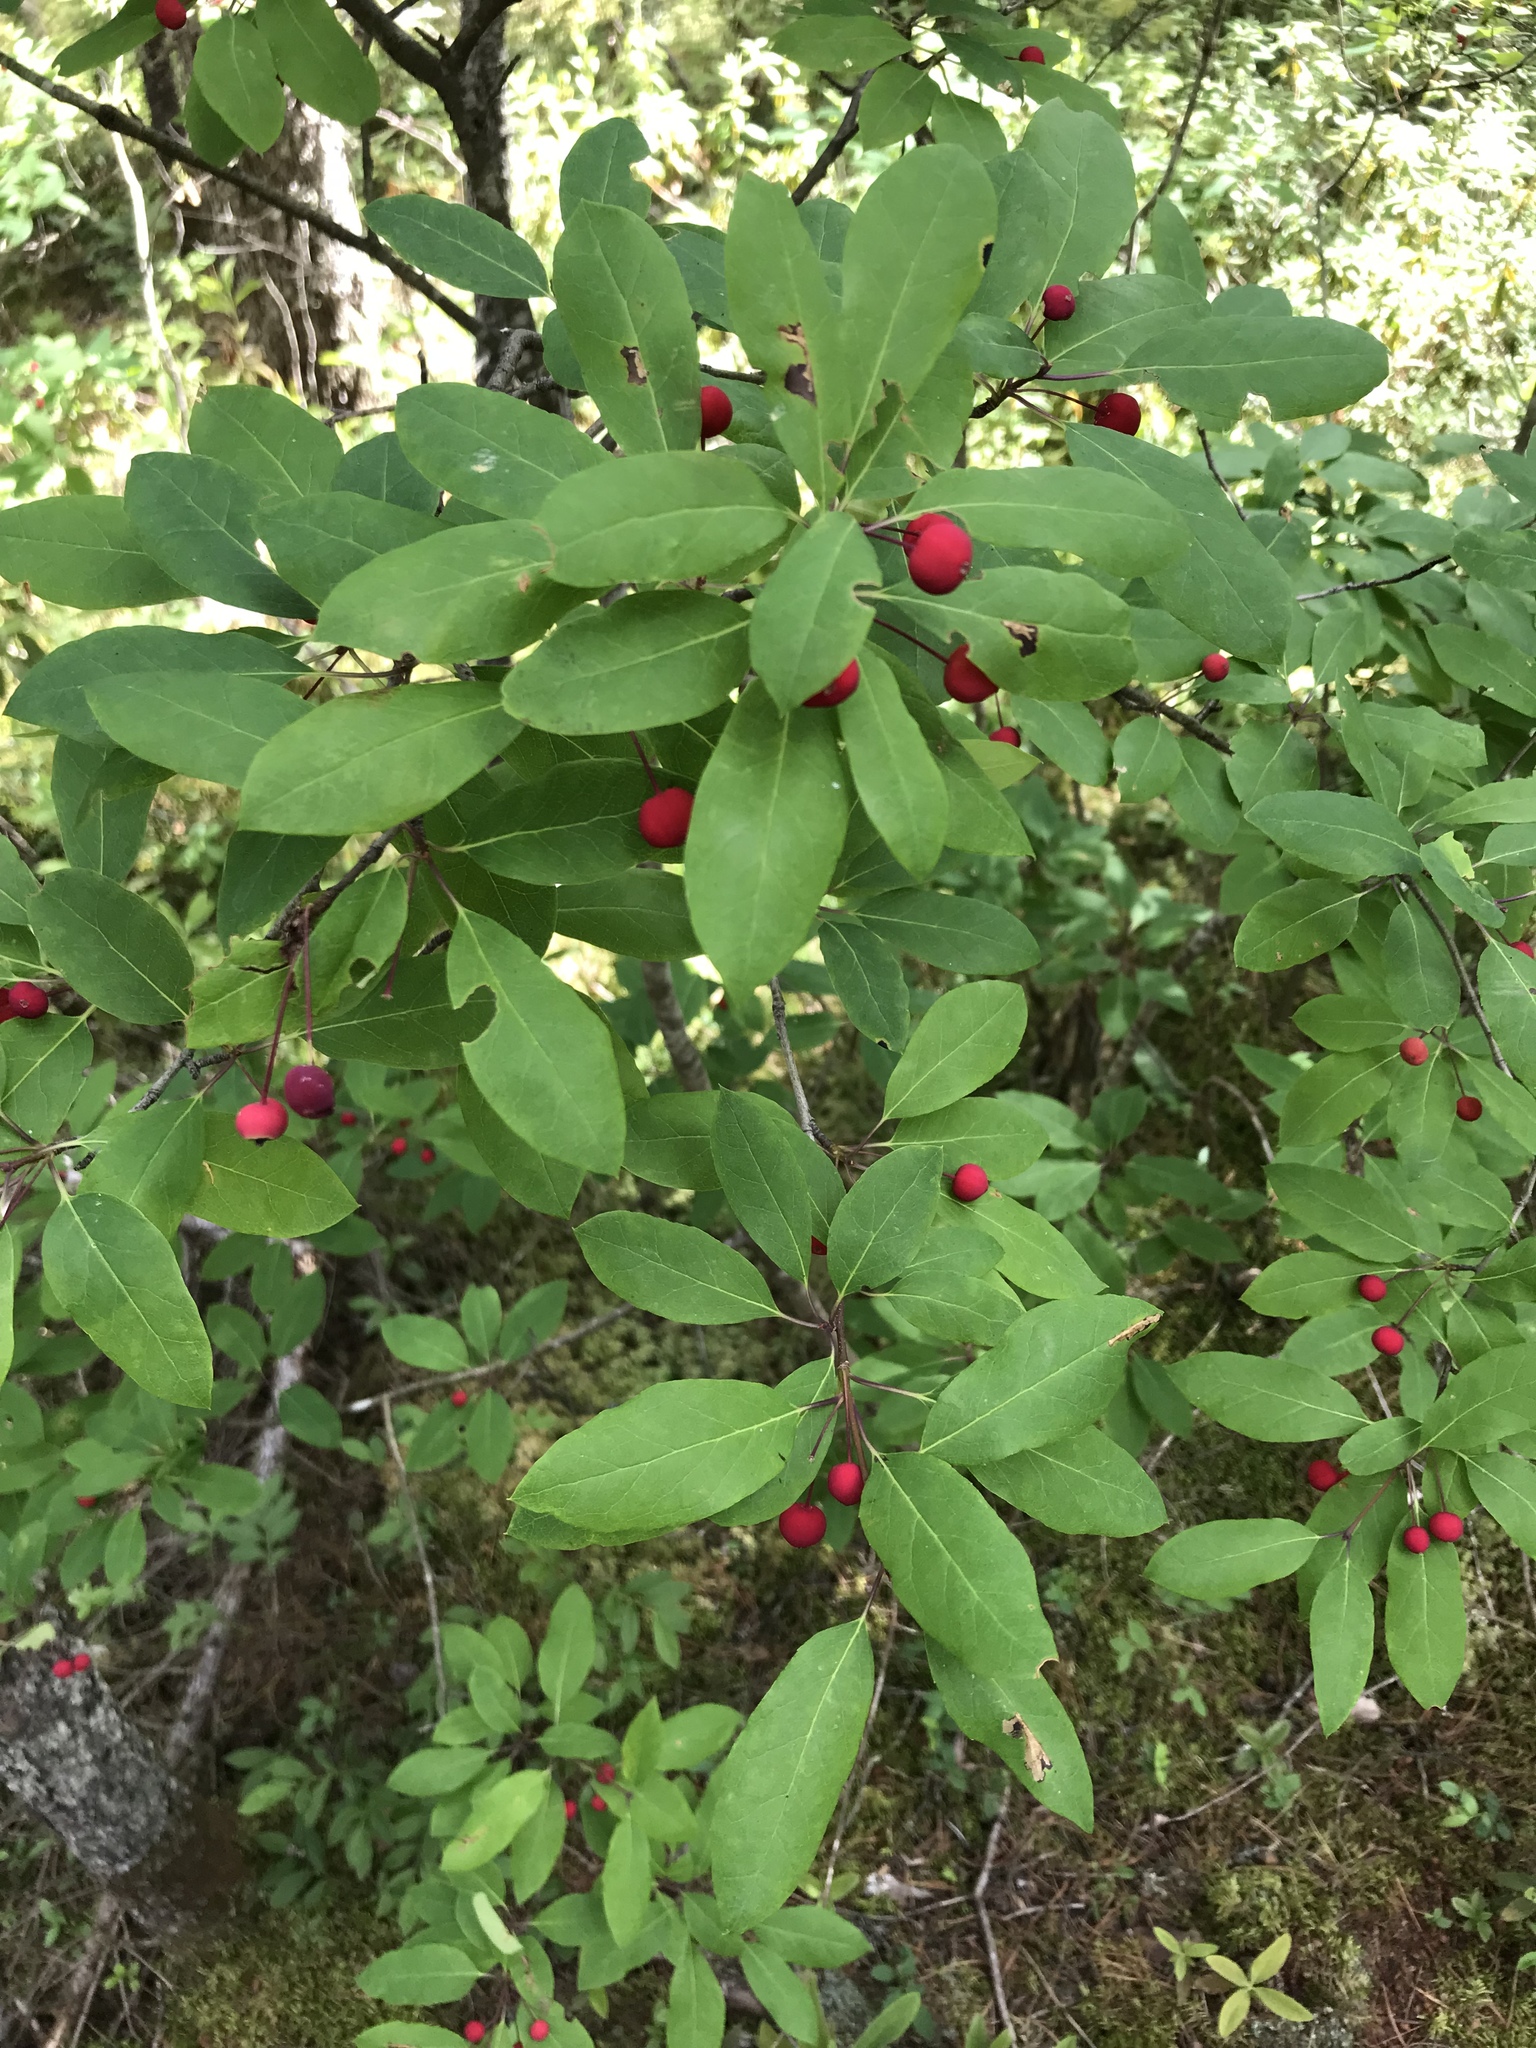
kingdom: Plantae
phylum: Tracheophyta
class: Magnoliopsida
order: Aquifoliales
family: Aquifoliaceae
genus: Ilex
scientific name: Ilex mucronata
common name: Catberry
